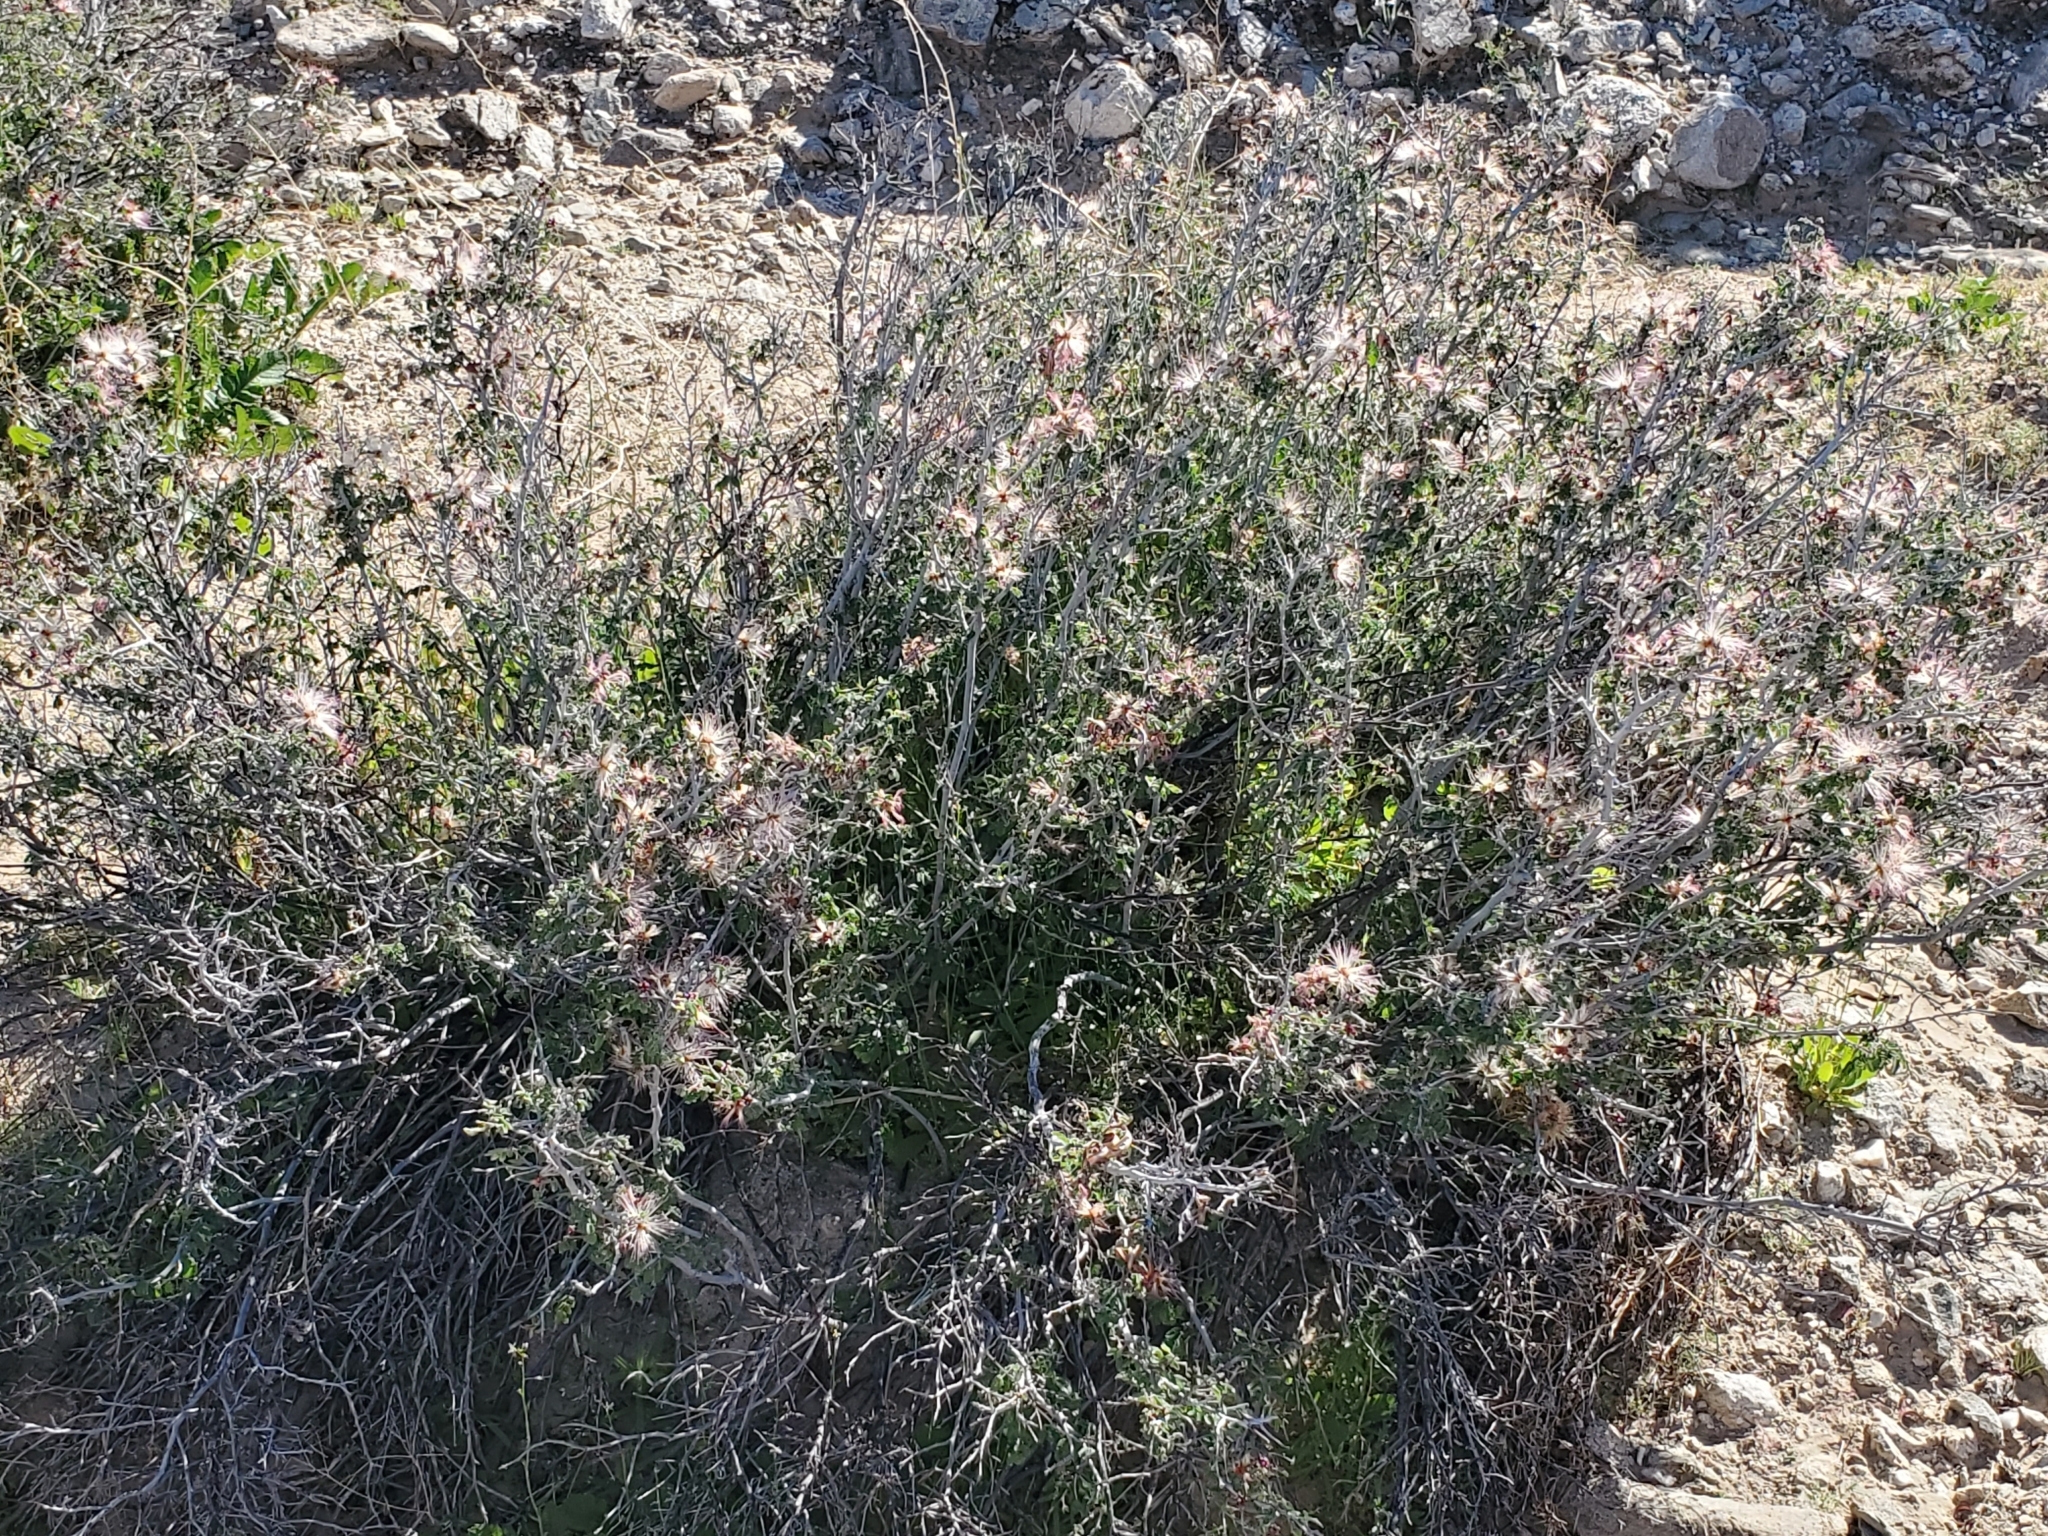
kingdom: Plantae
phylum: Tracheophyta
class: Magnoliopsida
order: Fabales
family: Fabaceae
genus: Calliandra
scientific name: Calliandra eriophylla
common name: Fairy-duster
